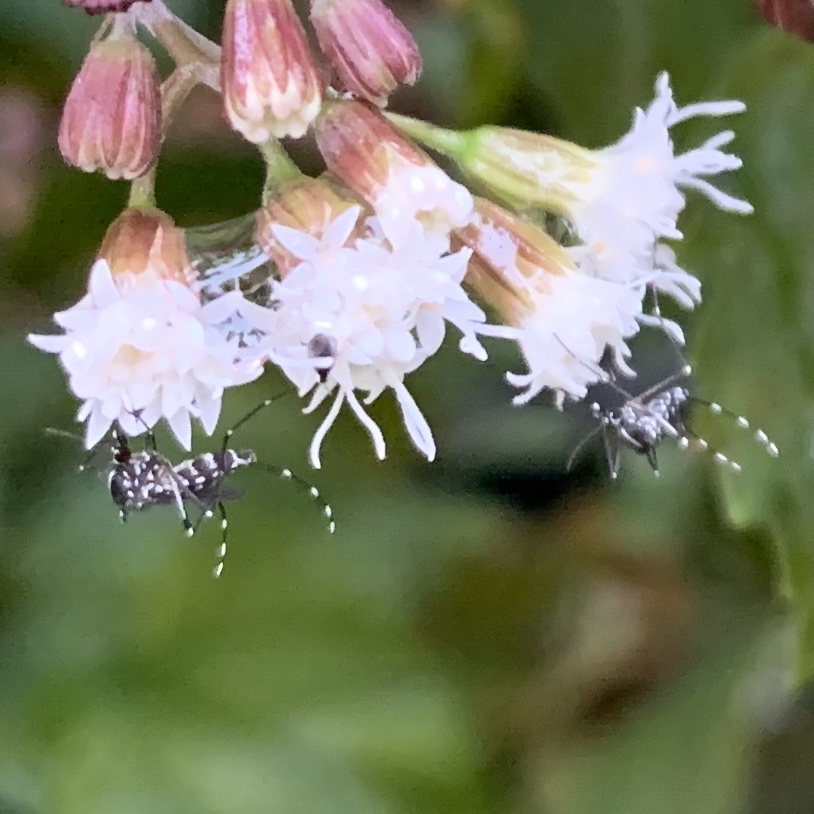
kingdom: Animalia
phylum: Arthropoda
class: Insecta
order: Diptera
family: Culicidae
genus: Aedes
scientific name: Aedes albopictus
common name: Tiger mosquito
